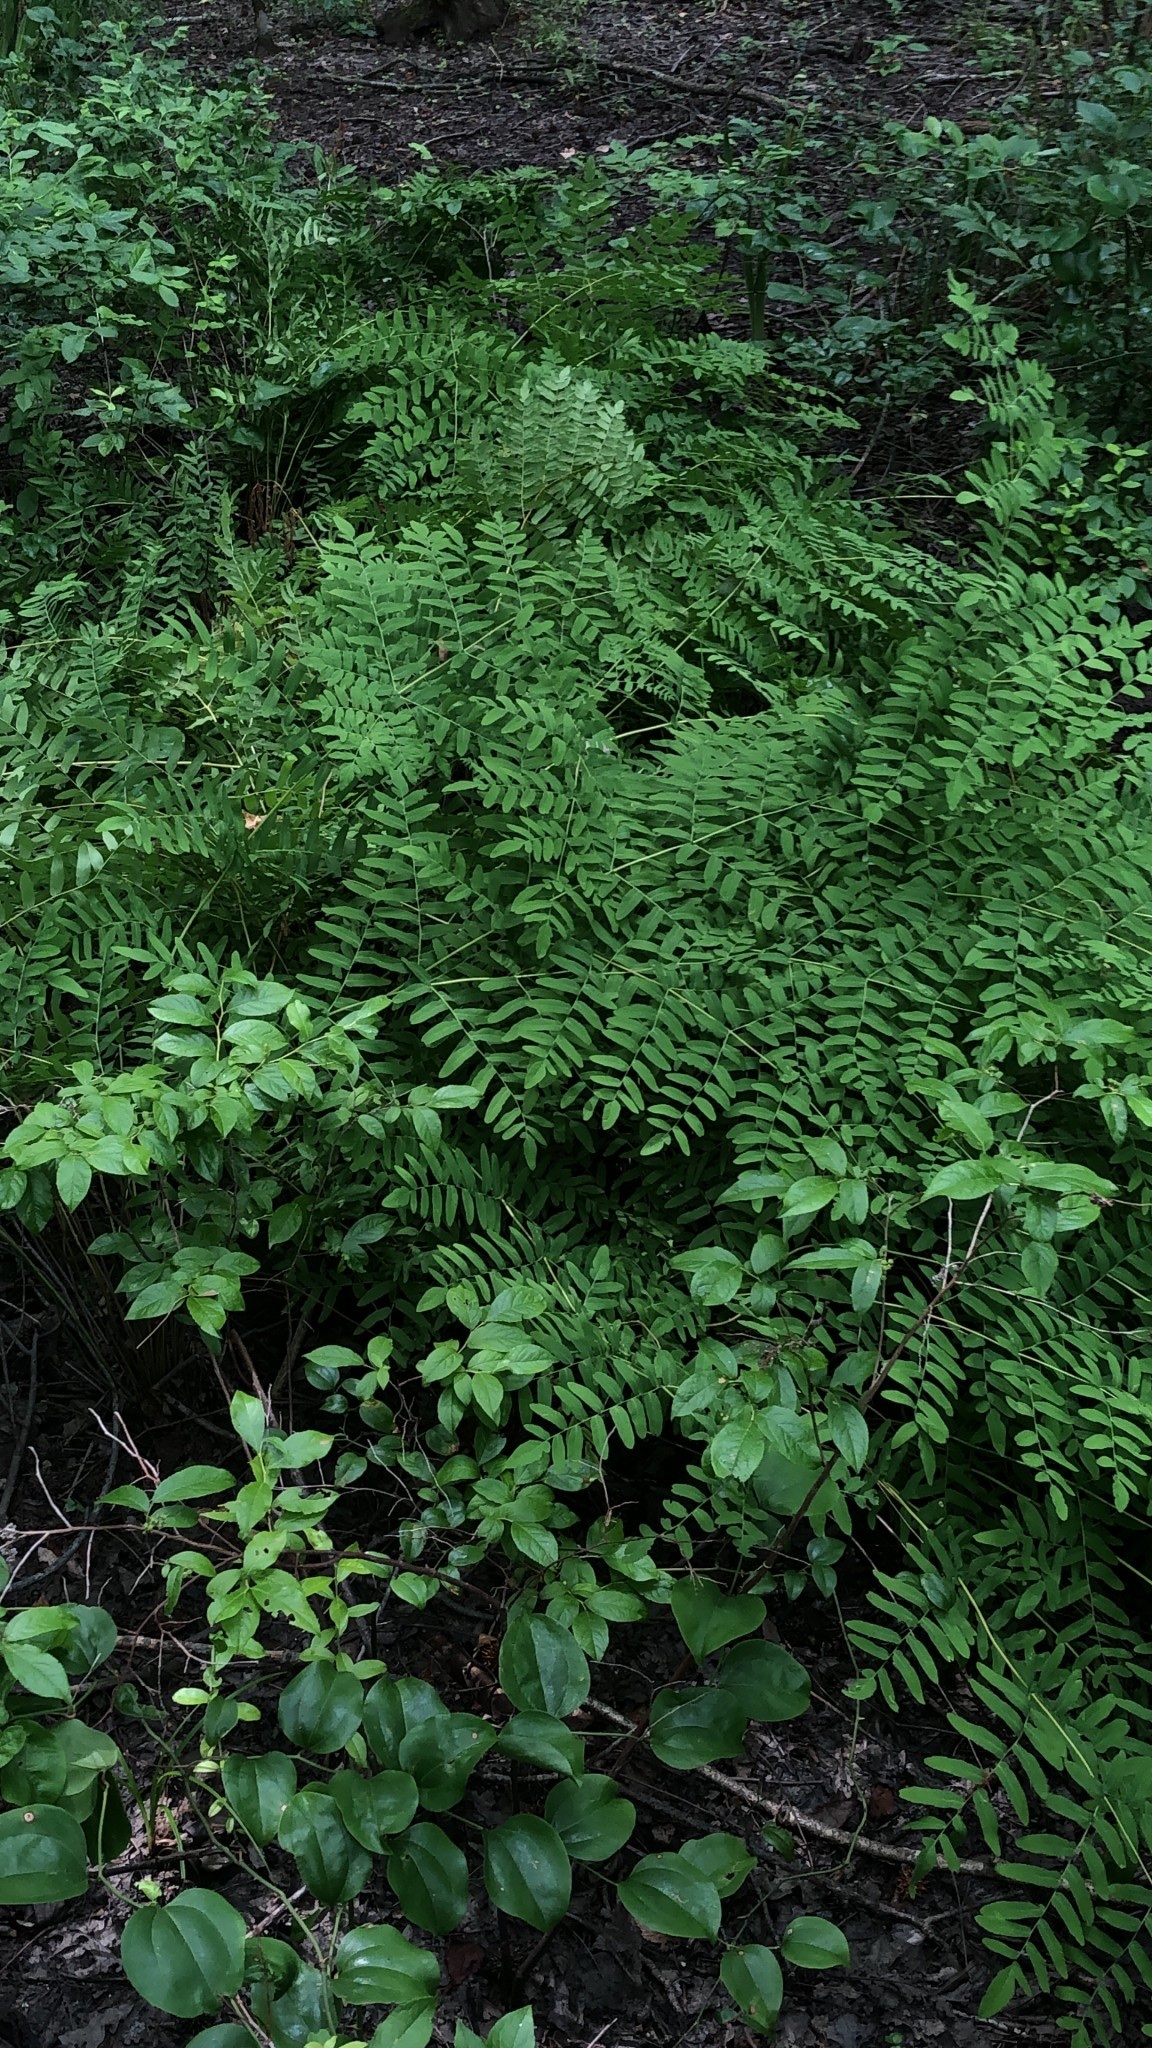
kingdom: Plantae
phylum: Tracheophyta
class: Polypodiopsida
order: Osmundales
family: Osmundaceae
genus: Osmunda
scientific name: Osmunda spectabilis
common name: American royal fern
